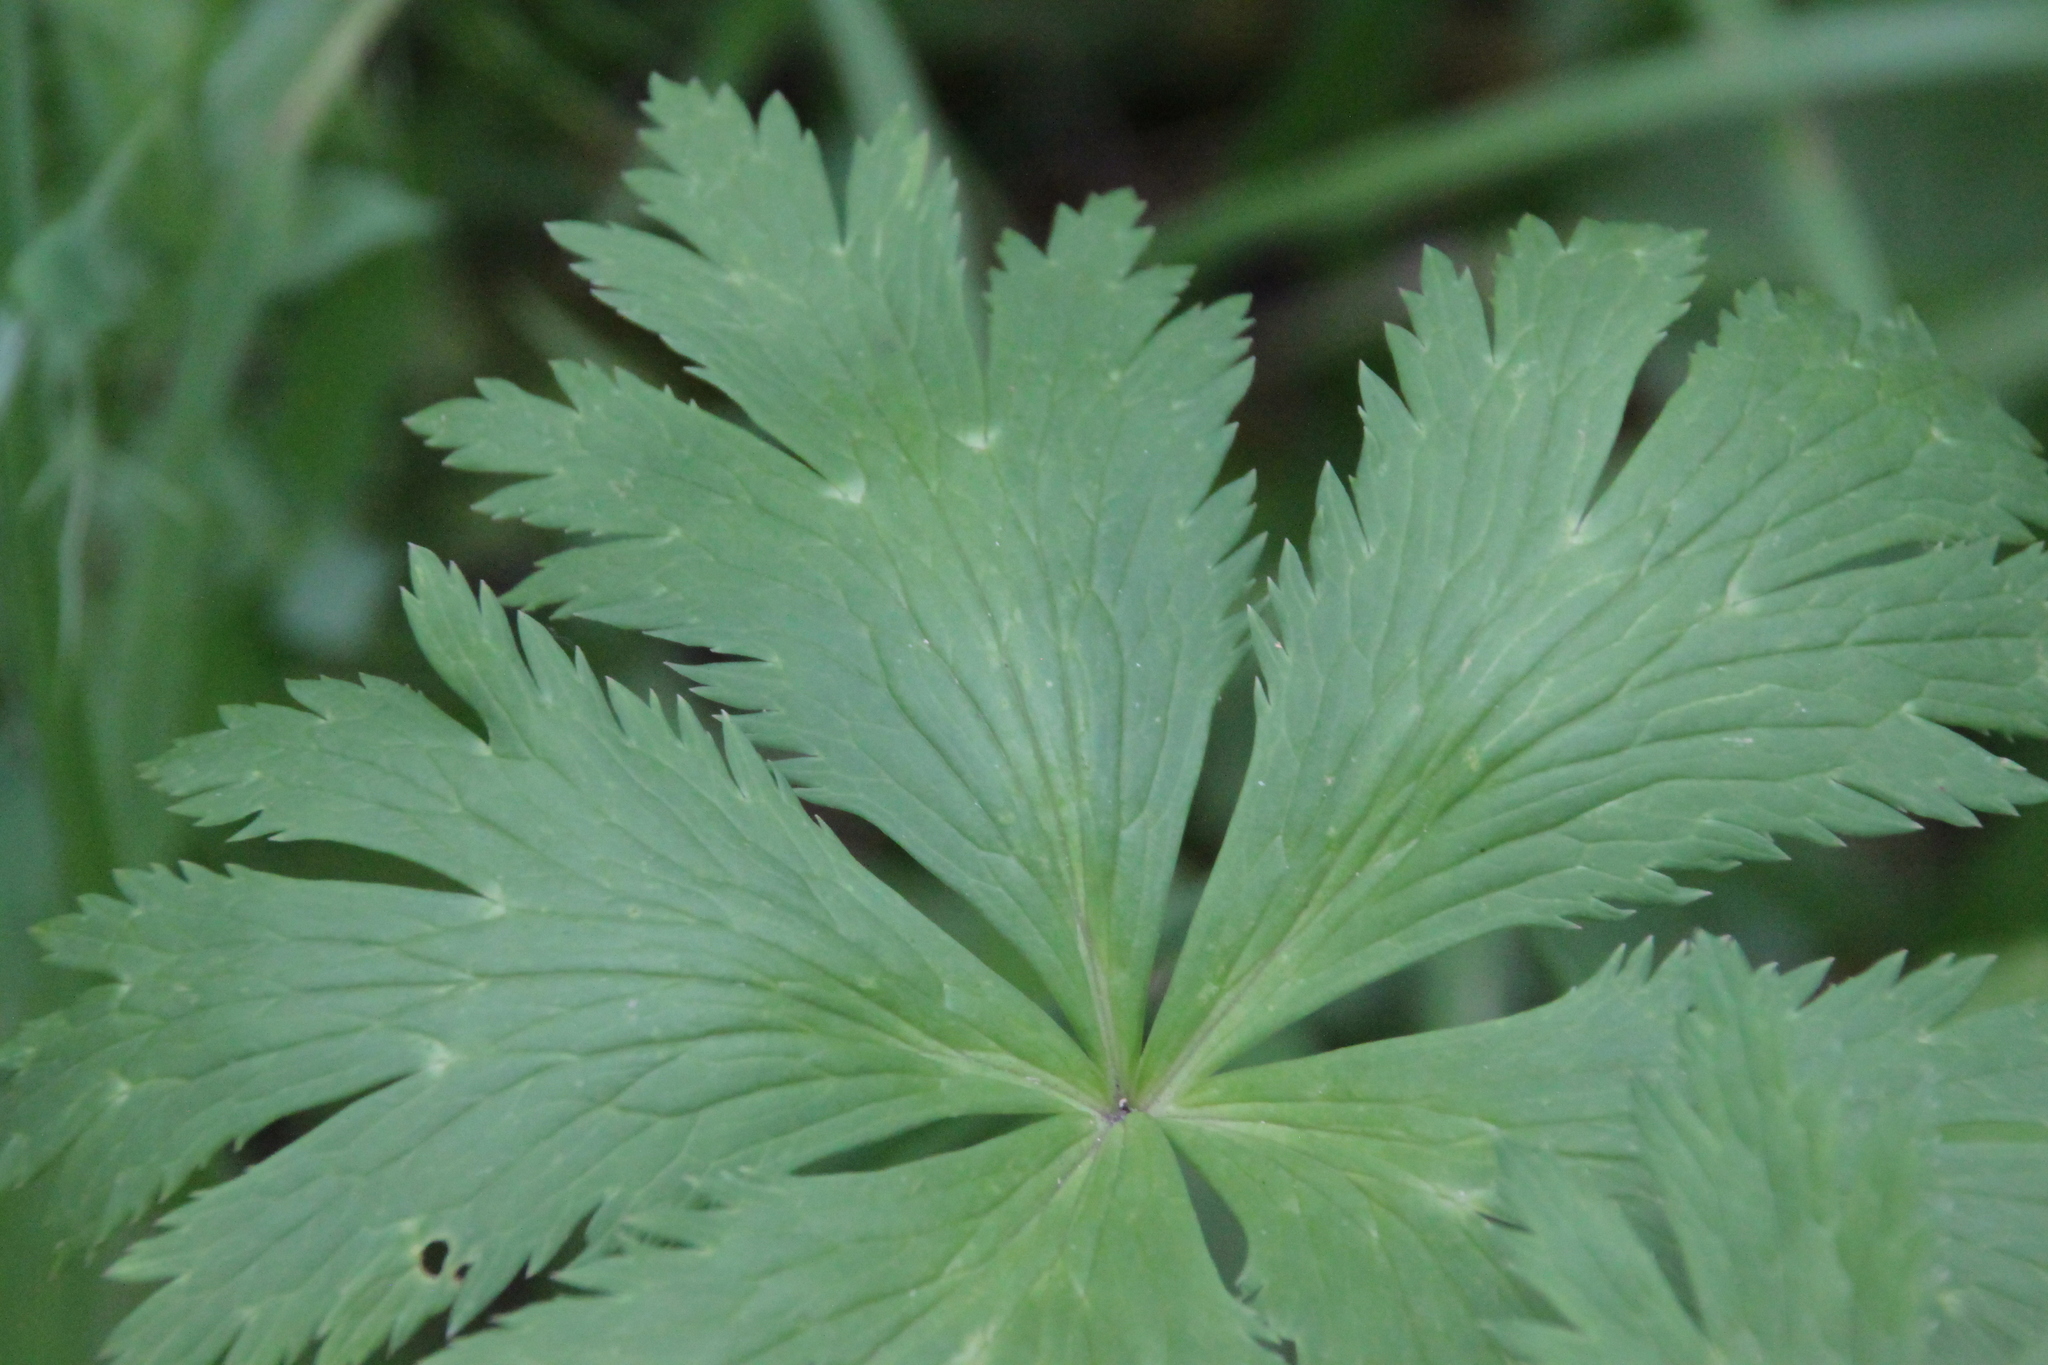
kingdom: Plantae
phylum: Tracheophyta
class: Magnoliopsida
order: Ranunculales
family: Ranunculaceae
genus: Trollius
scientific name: Trollius europaeus
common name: European globeflower
